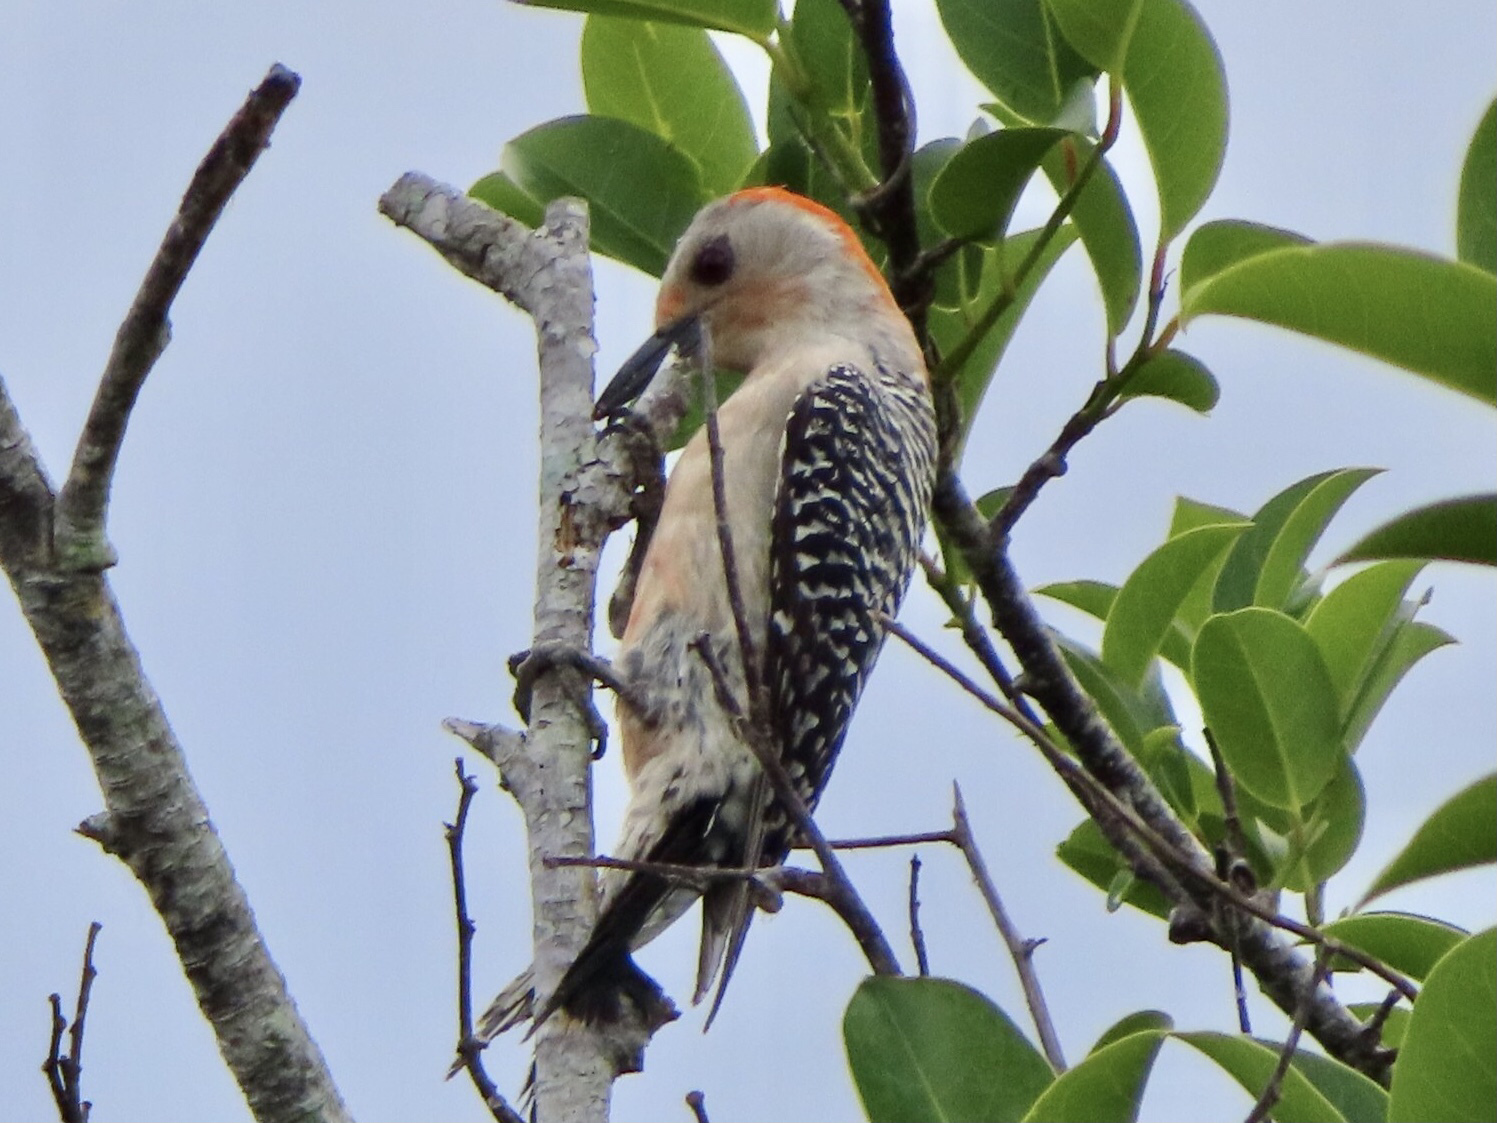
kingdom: Animalia
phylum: Chordata
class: Aves
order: Piciformes
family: Picidae
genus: Melanerpes
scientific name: Melanerpes carolinus
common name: Red-bellied woodpecker
